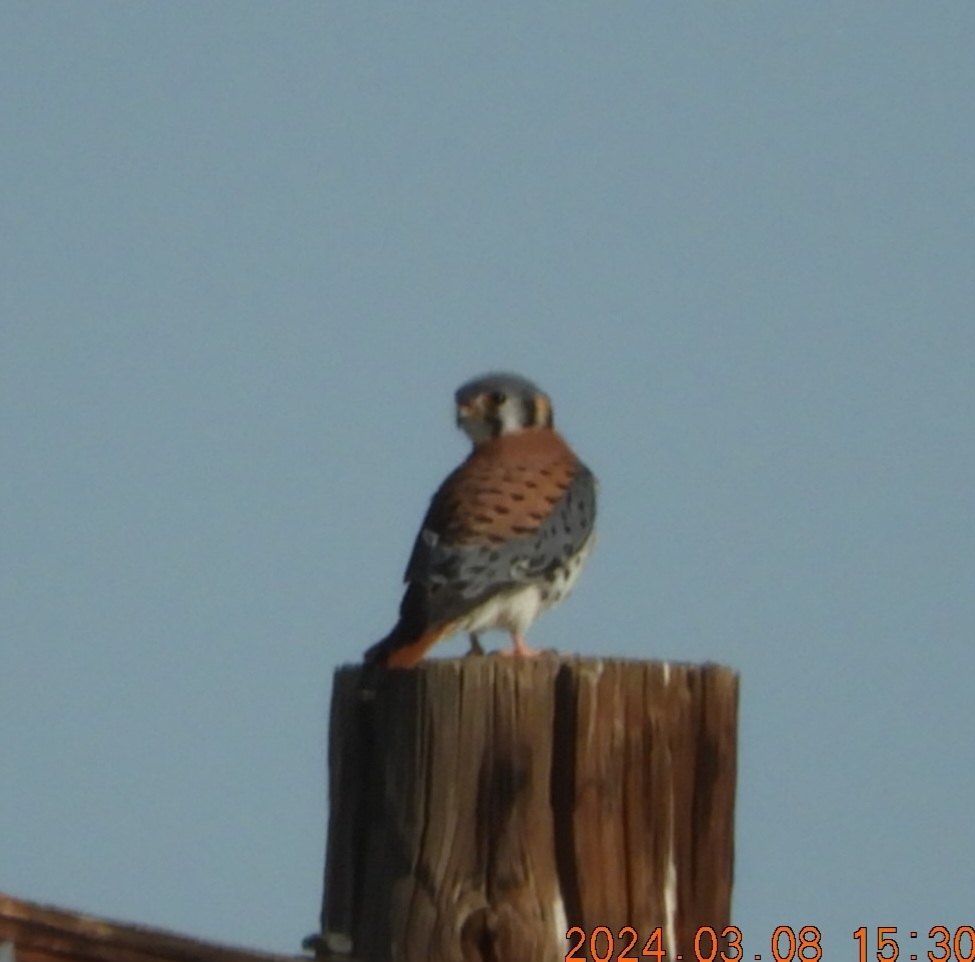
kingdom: Animalia
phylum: Chordata
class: Aves
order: Falconiformes
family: Falconidae
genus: Falco
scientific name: Falco sparverius
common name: American kestrel
